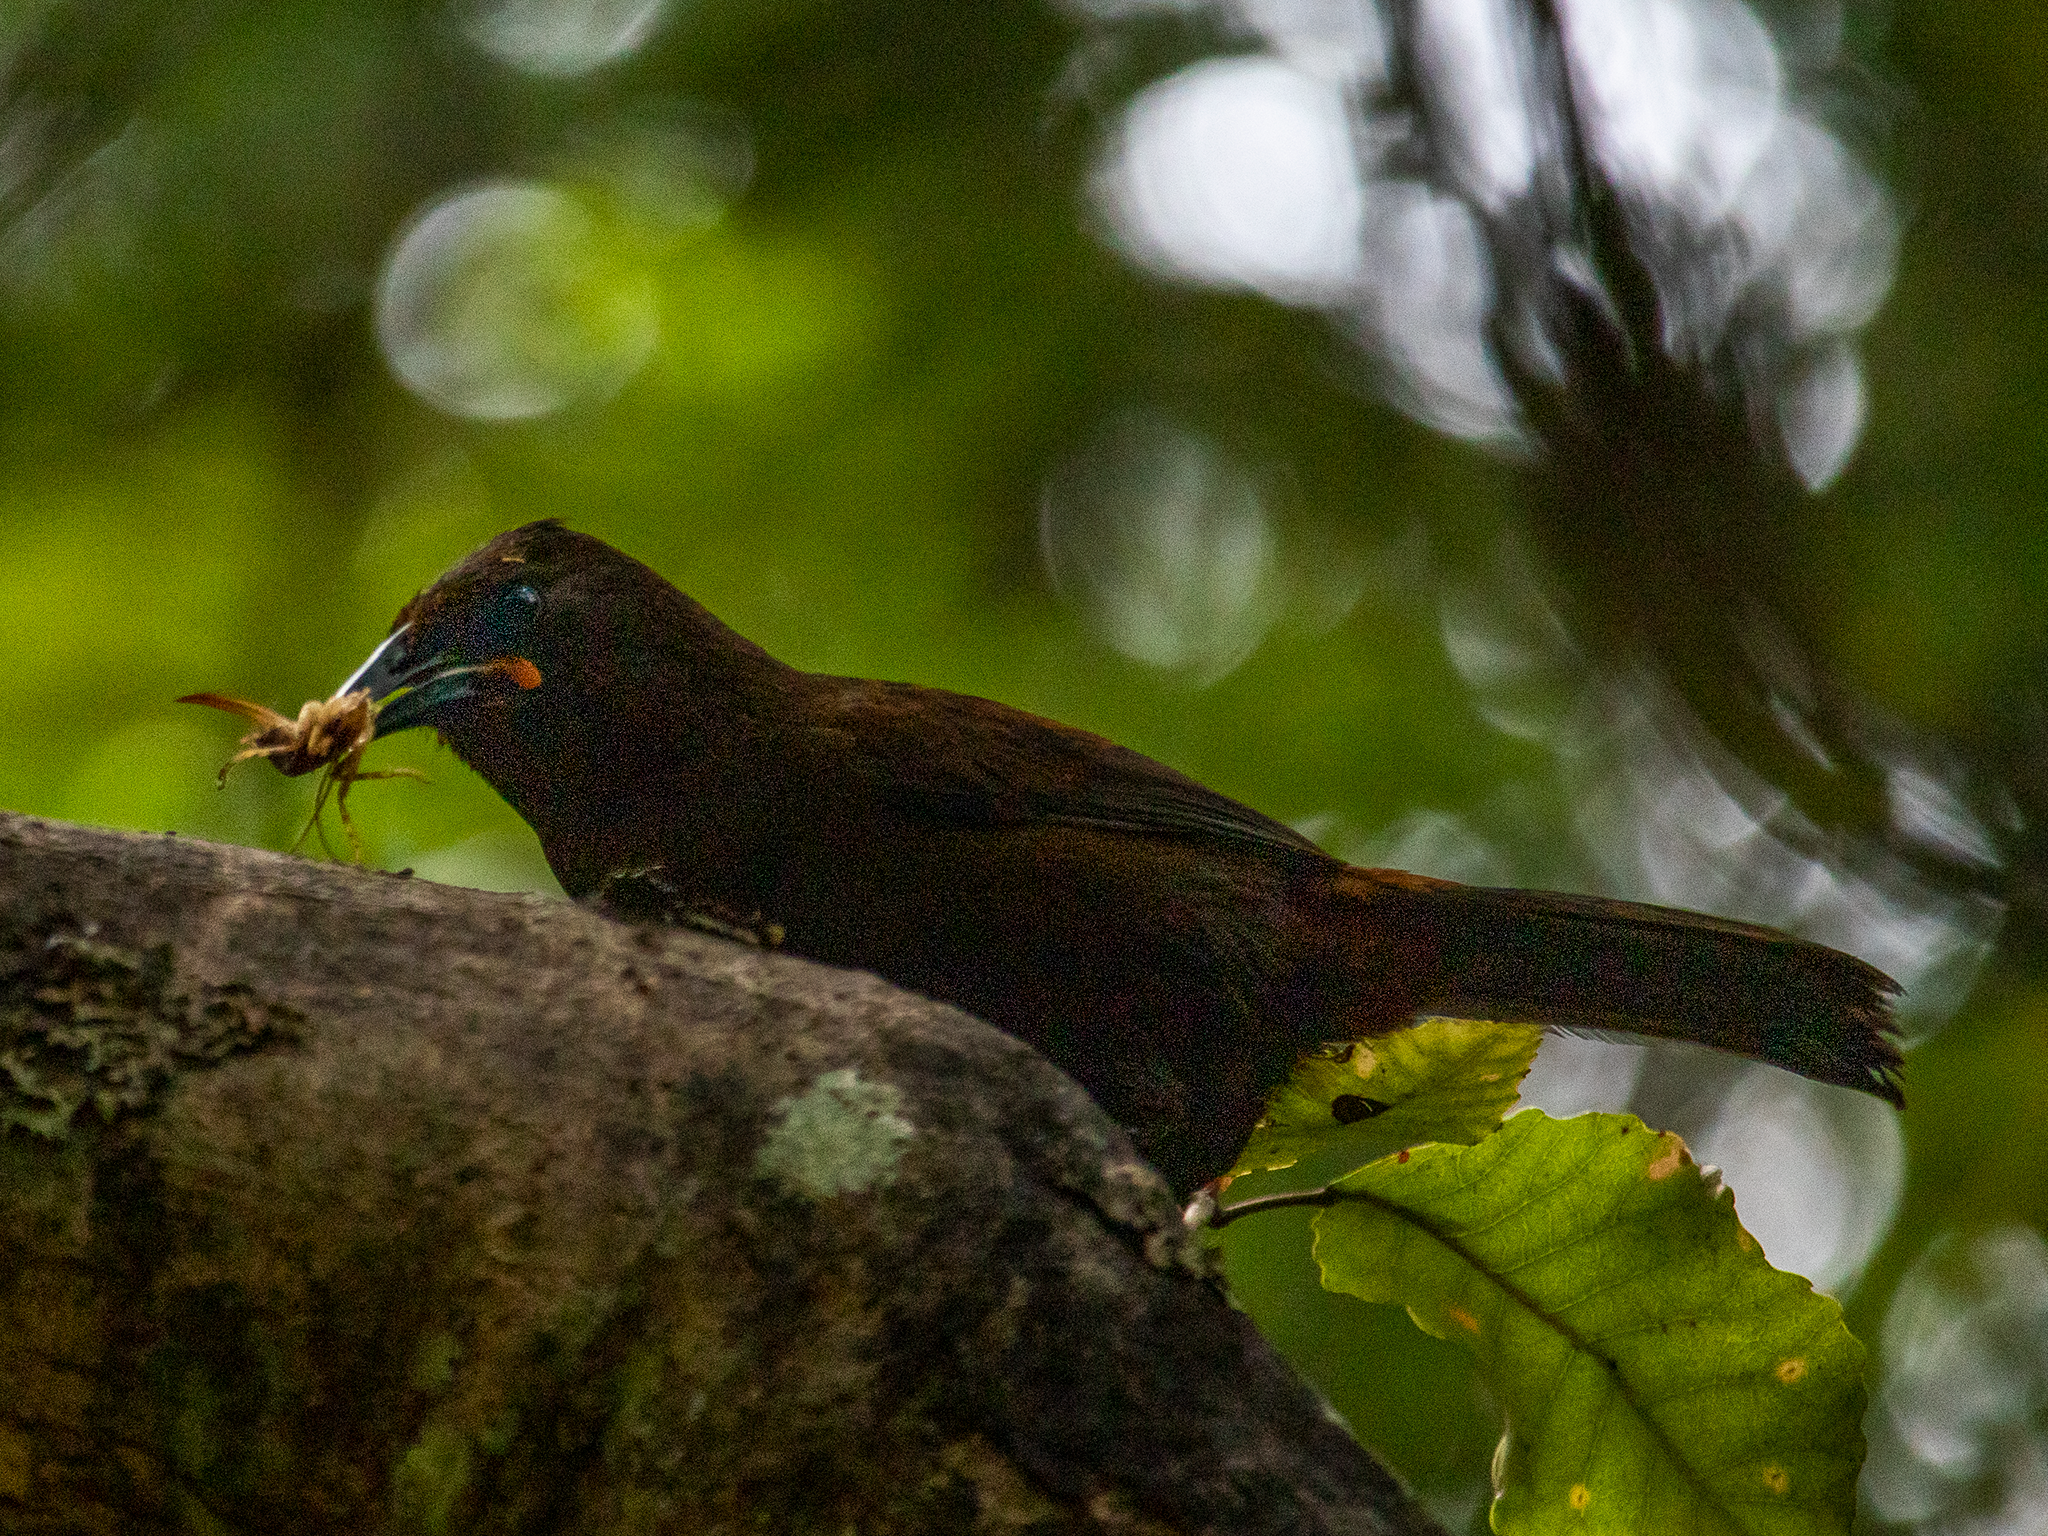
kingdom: Animalia
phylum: Chordata
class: Aves
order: Passeriformes
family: Callaeatidae
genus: Philesturnus
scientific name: Philesturnus carunculatus
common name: South island saddleback
